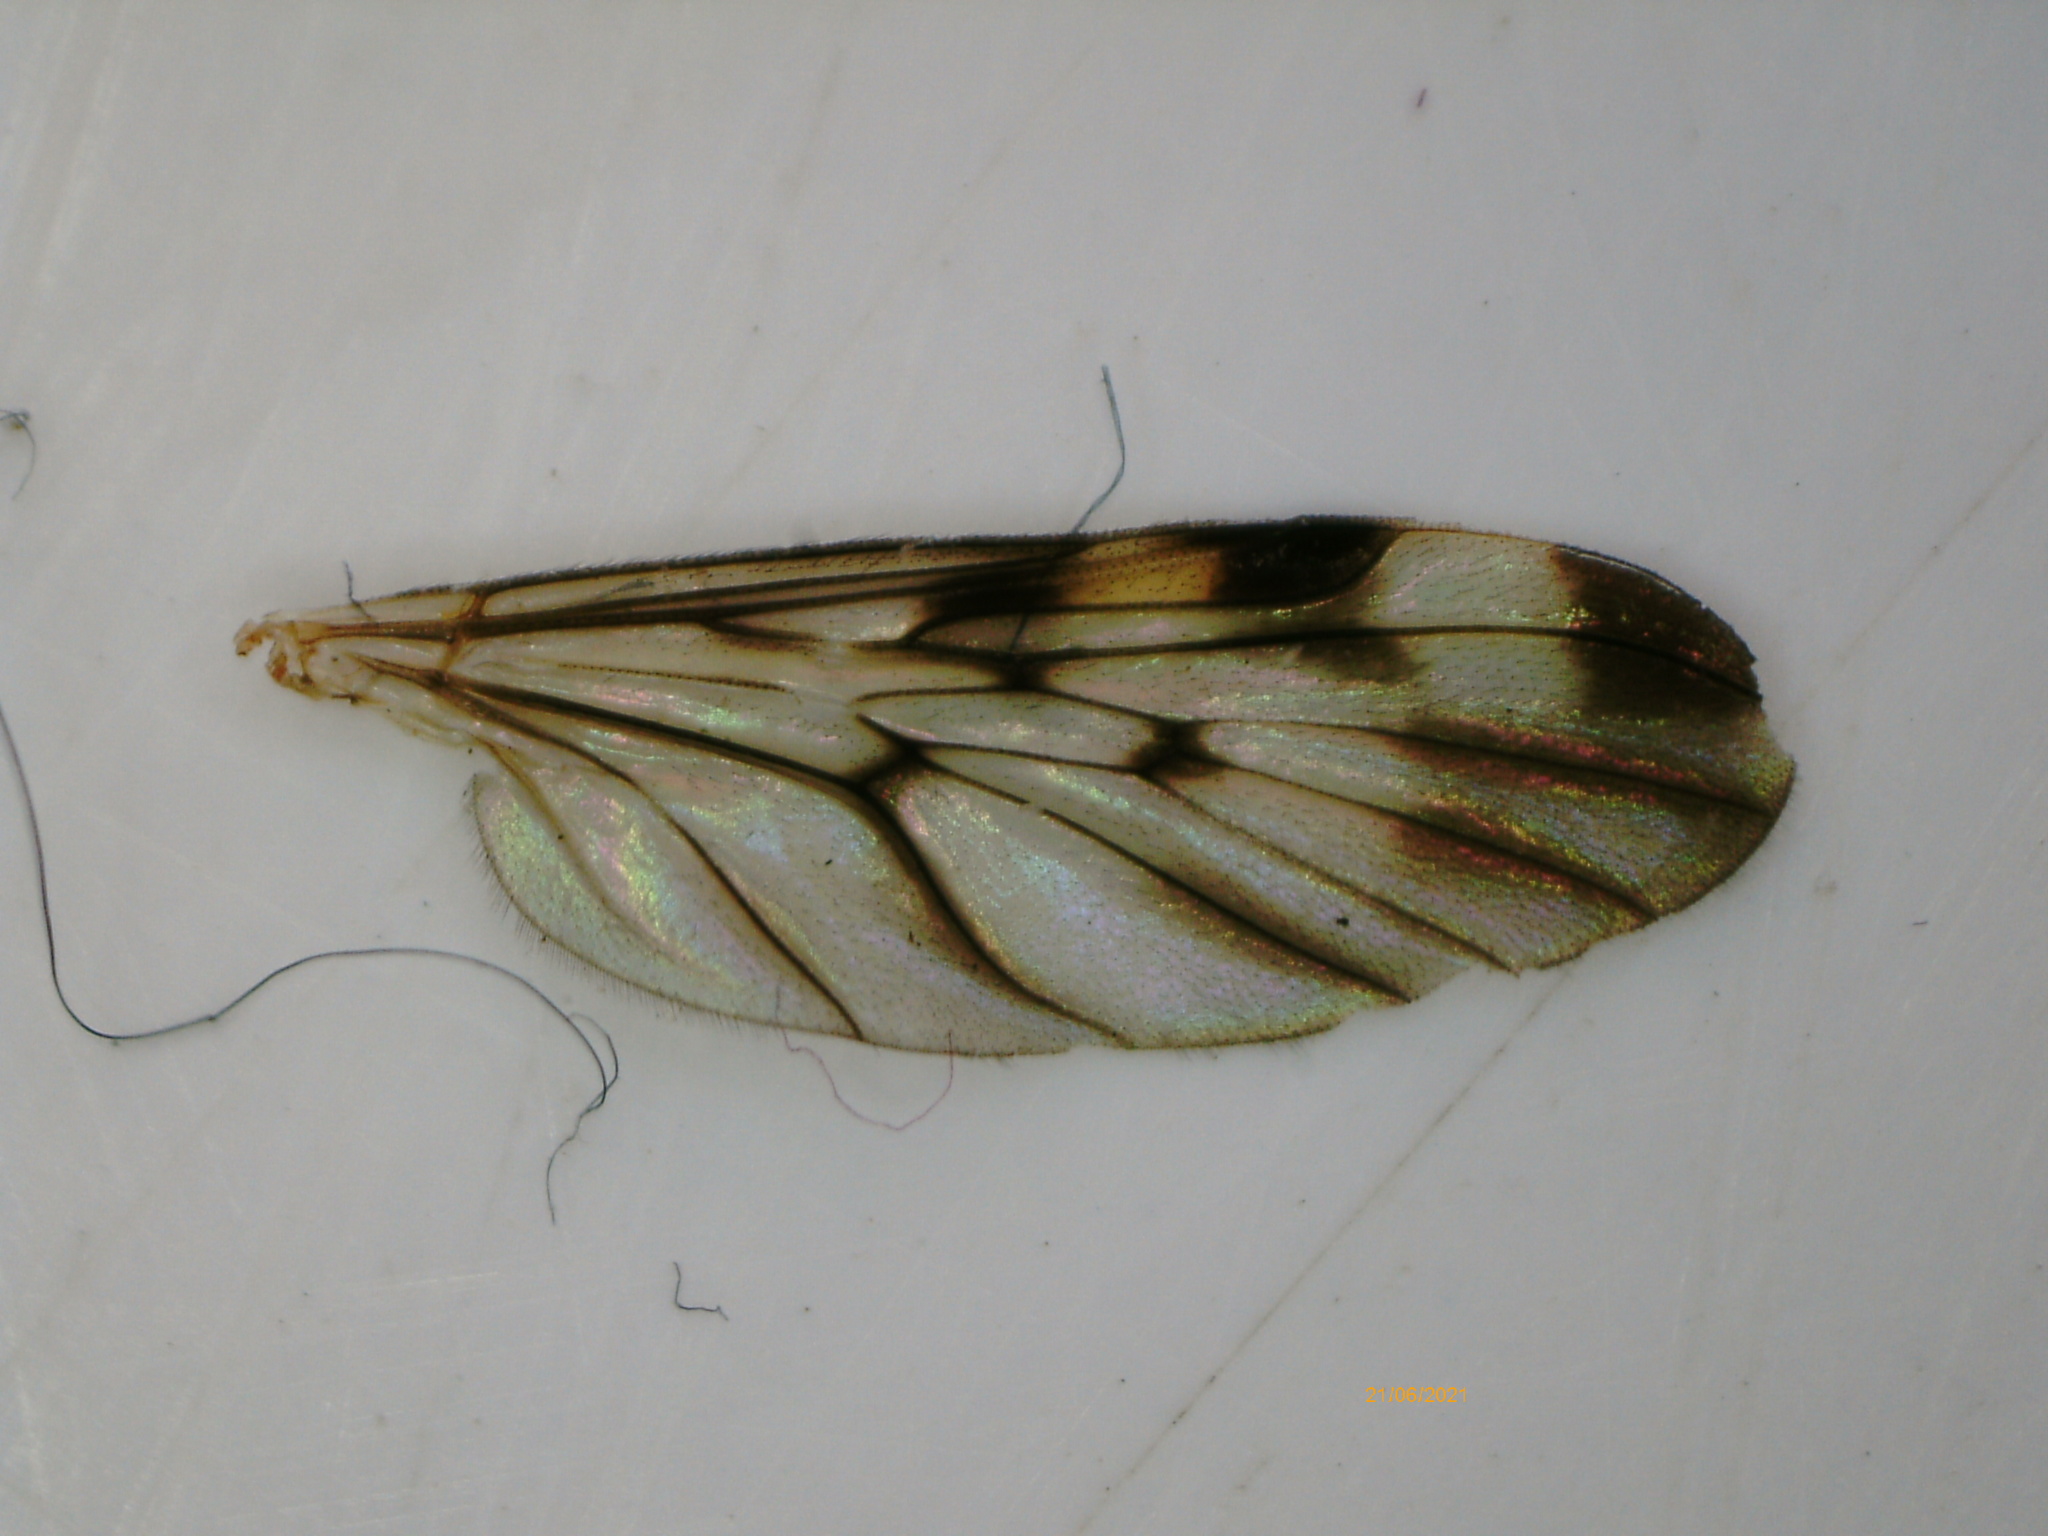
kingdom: Animalia
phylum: Arthropoda
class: Insecta
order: Diptera
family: Anisopodidae
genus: Sylvicola
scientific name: Sylvicola
